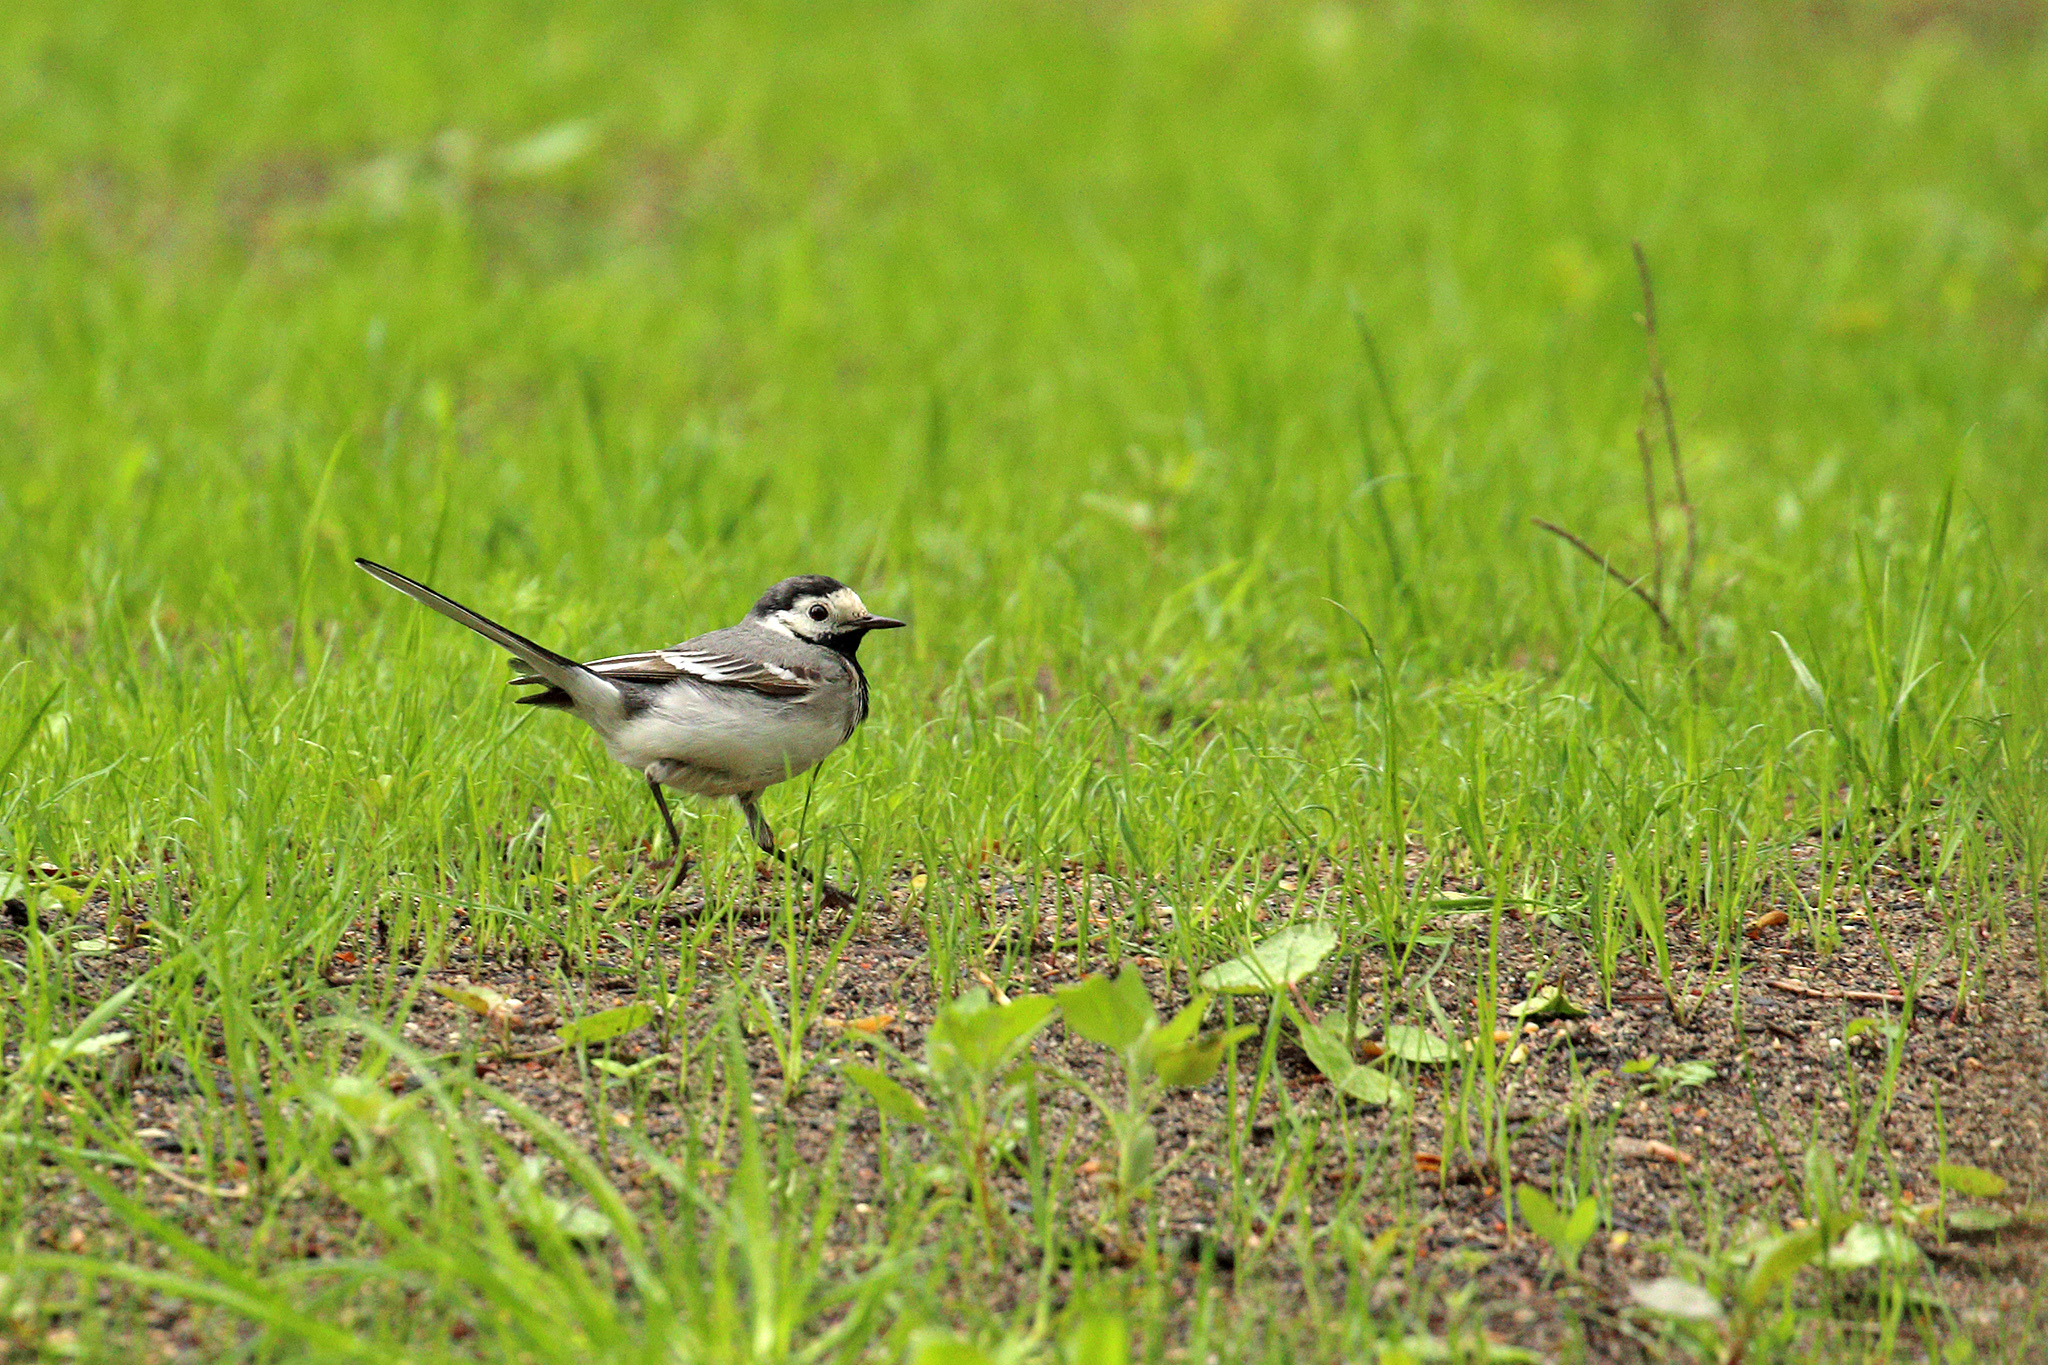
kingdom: Animalia
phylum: Chordata
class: Aves
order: Passeriformes
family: Motacillidae
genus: Motacilla
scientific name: Motacilla alba
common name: White wagtail
